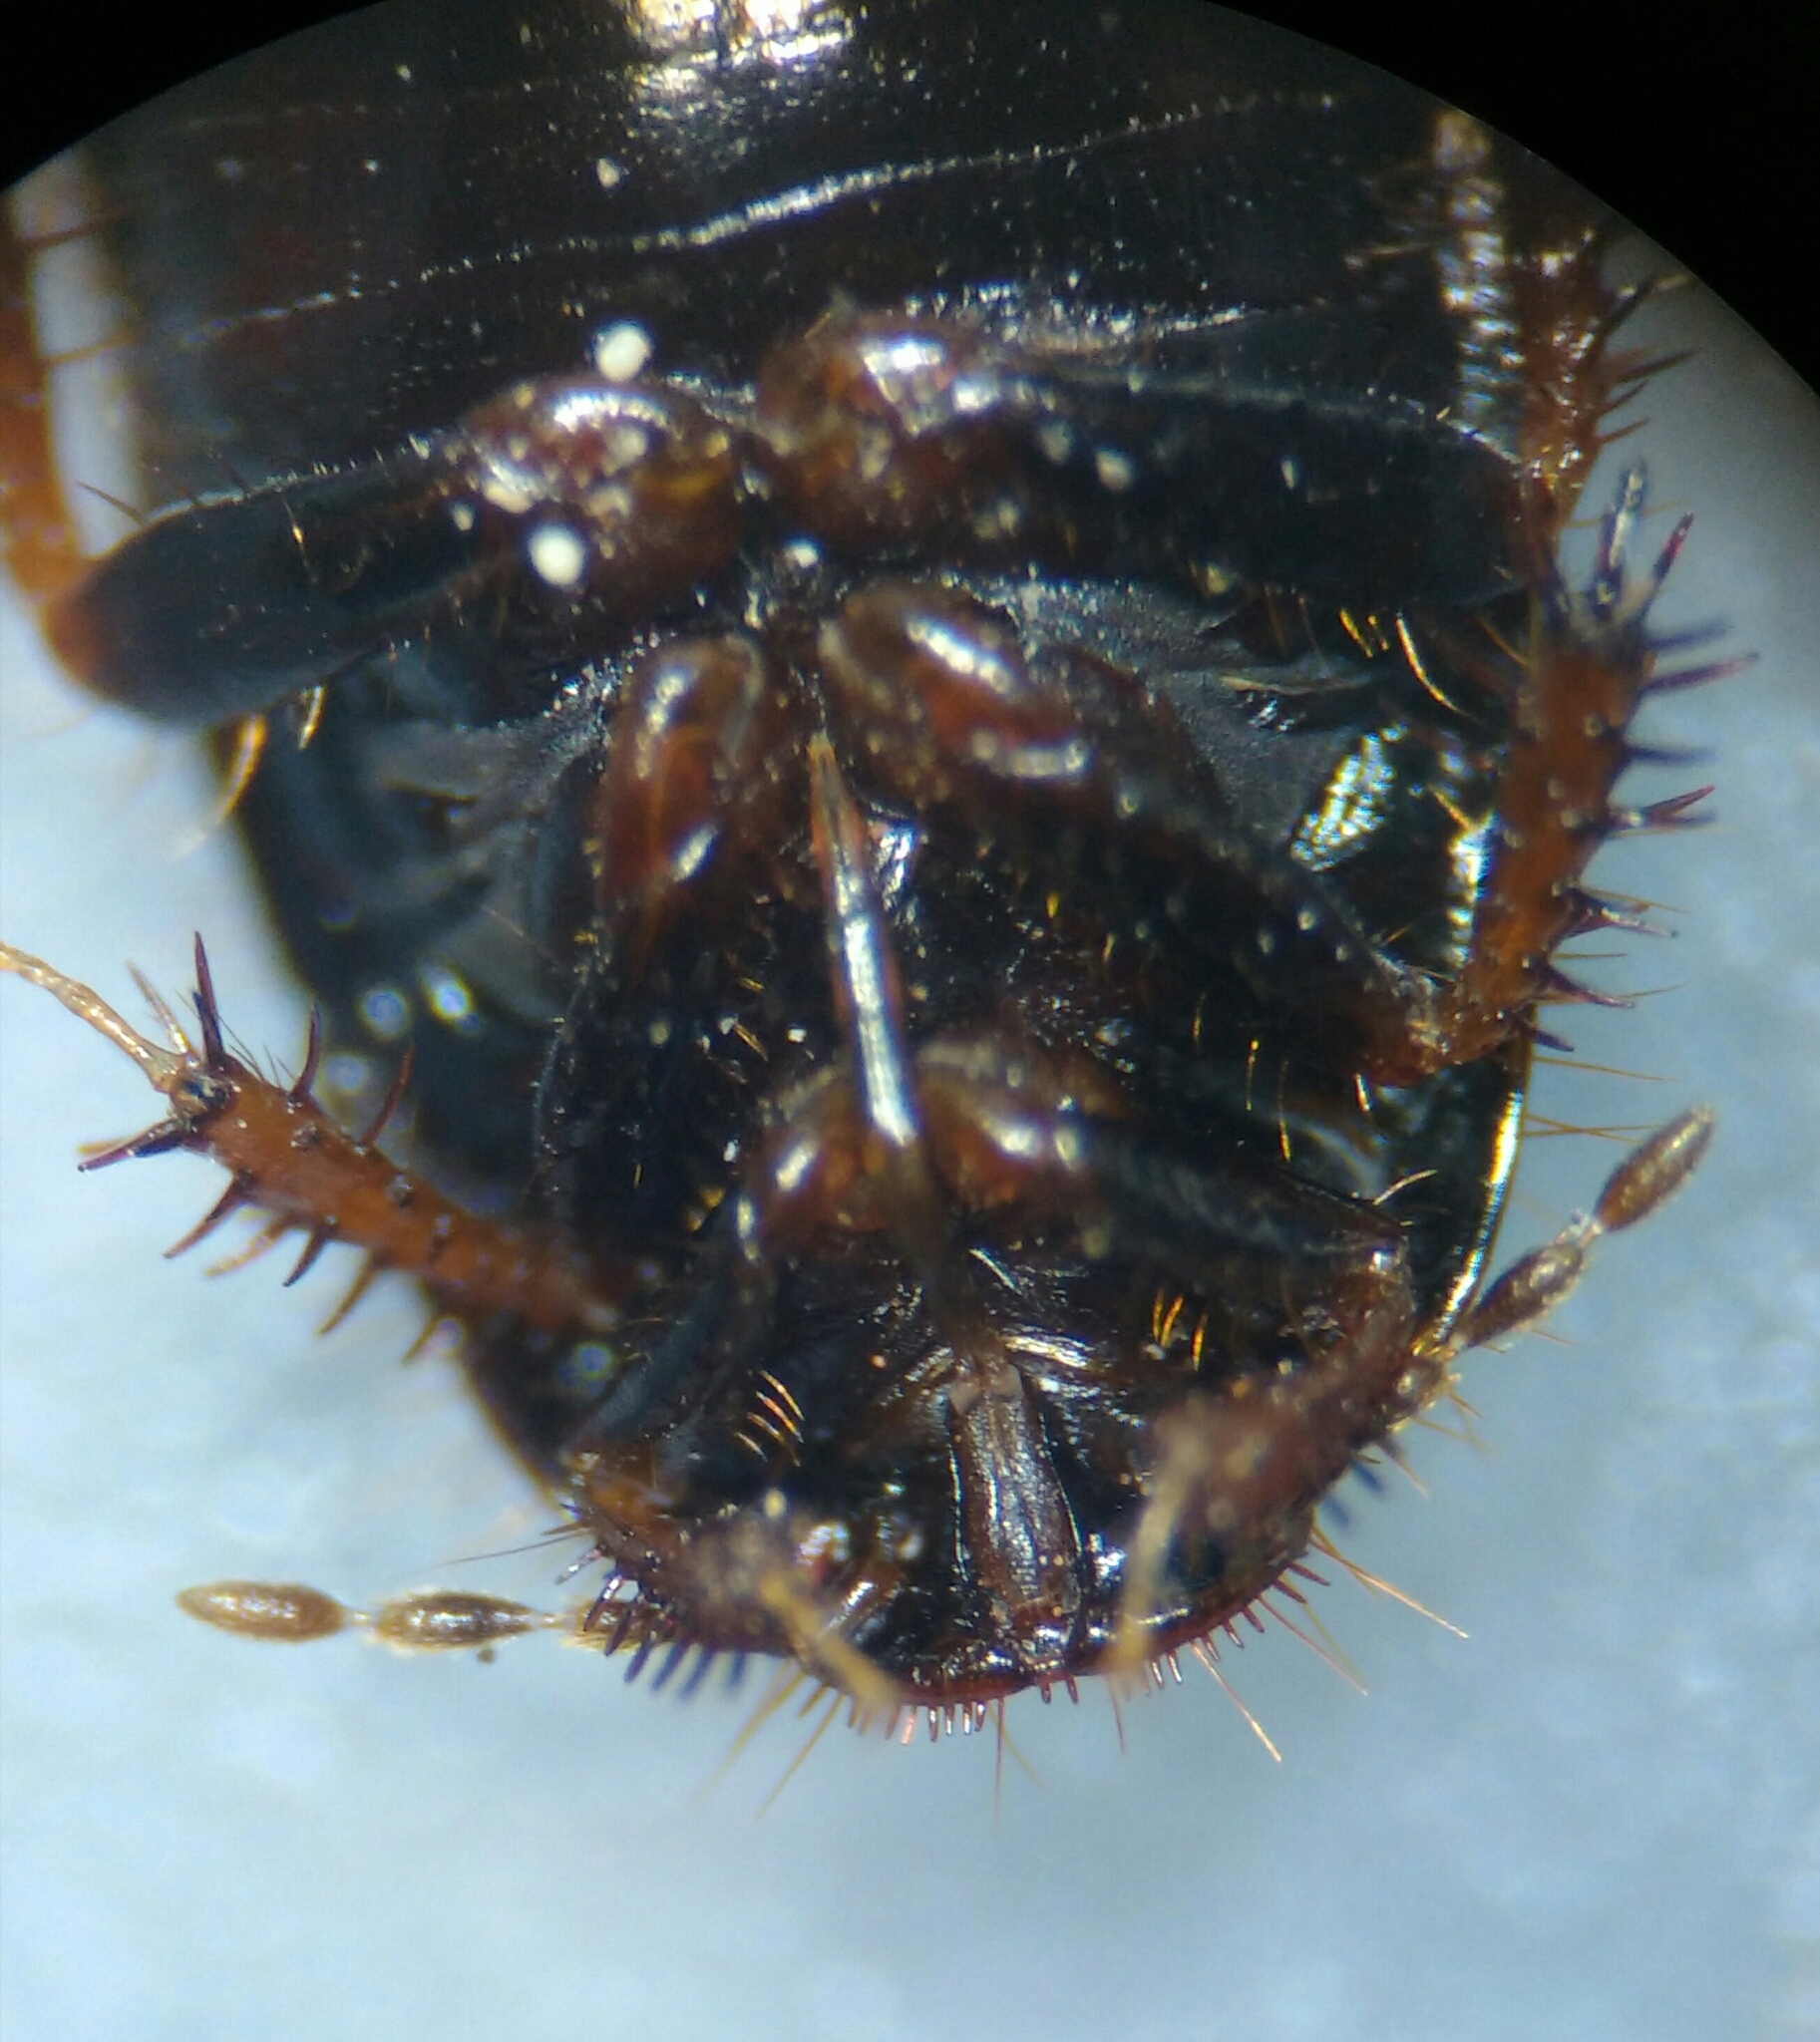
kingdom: Animalia
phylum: Arthropoda
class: Insecta
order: Hemiptera
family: Cydnidae
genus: Microporus
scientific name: Microporus nigrita
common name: Burrower bug
